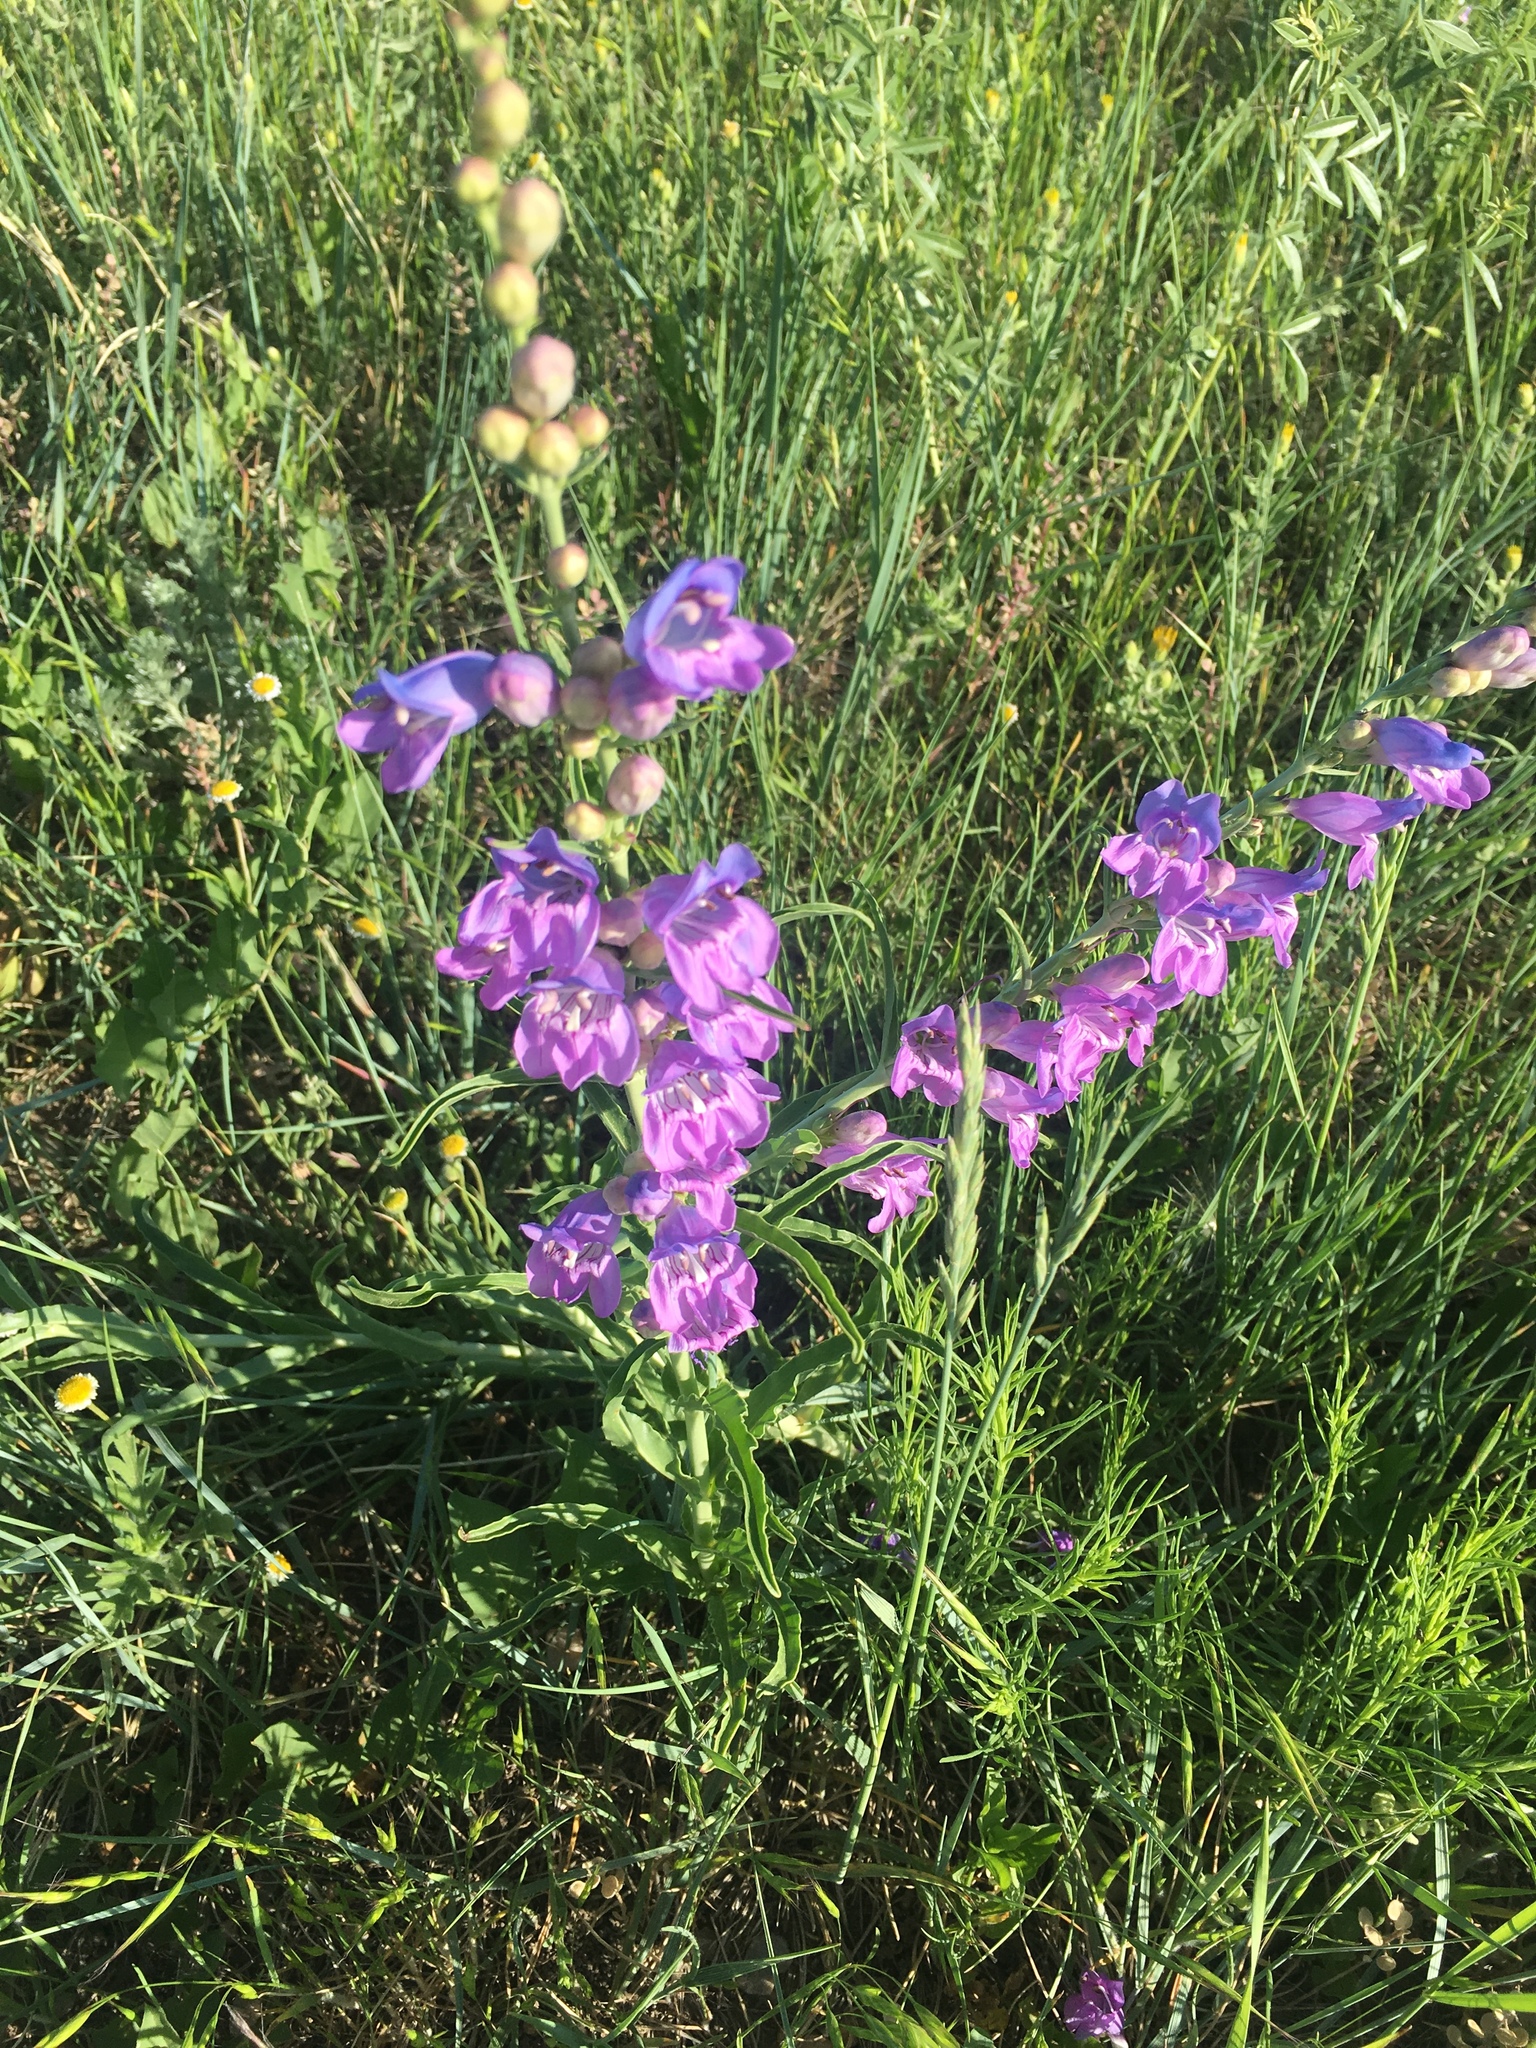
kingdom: Plantae
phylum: Tracheophyta
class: Magnoliopsida
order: Lamiales
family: Plantaginaceae
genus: Penstemon
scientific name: Penstemon virgatus
